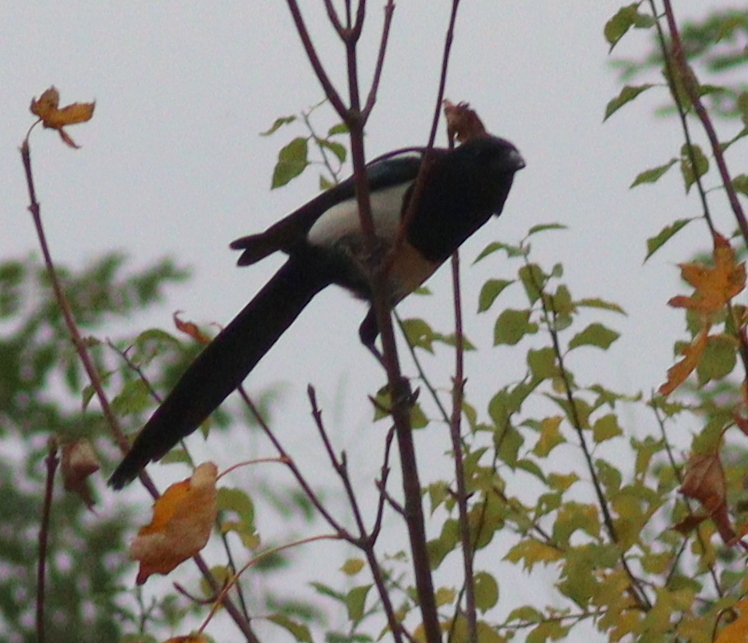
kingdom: Animalia
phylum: Chordata
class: Aves
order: Passeriformes
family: Corvidae
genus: Pica
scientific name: Pica pica
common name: Eurasian magpie
